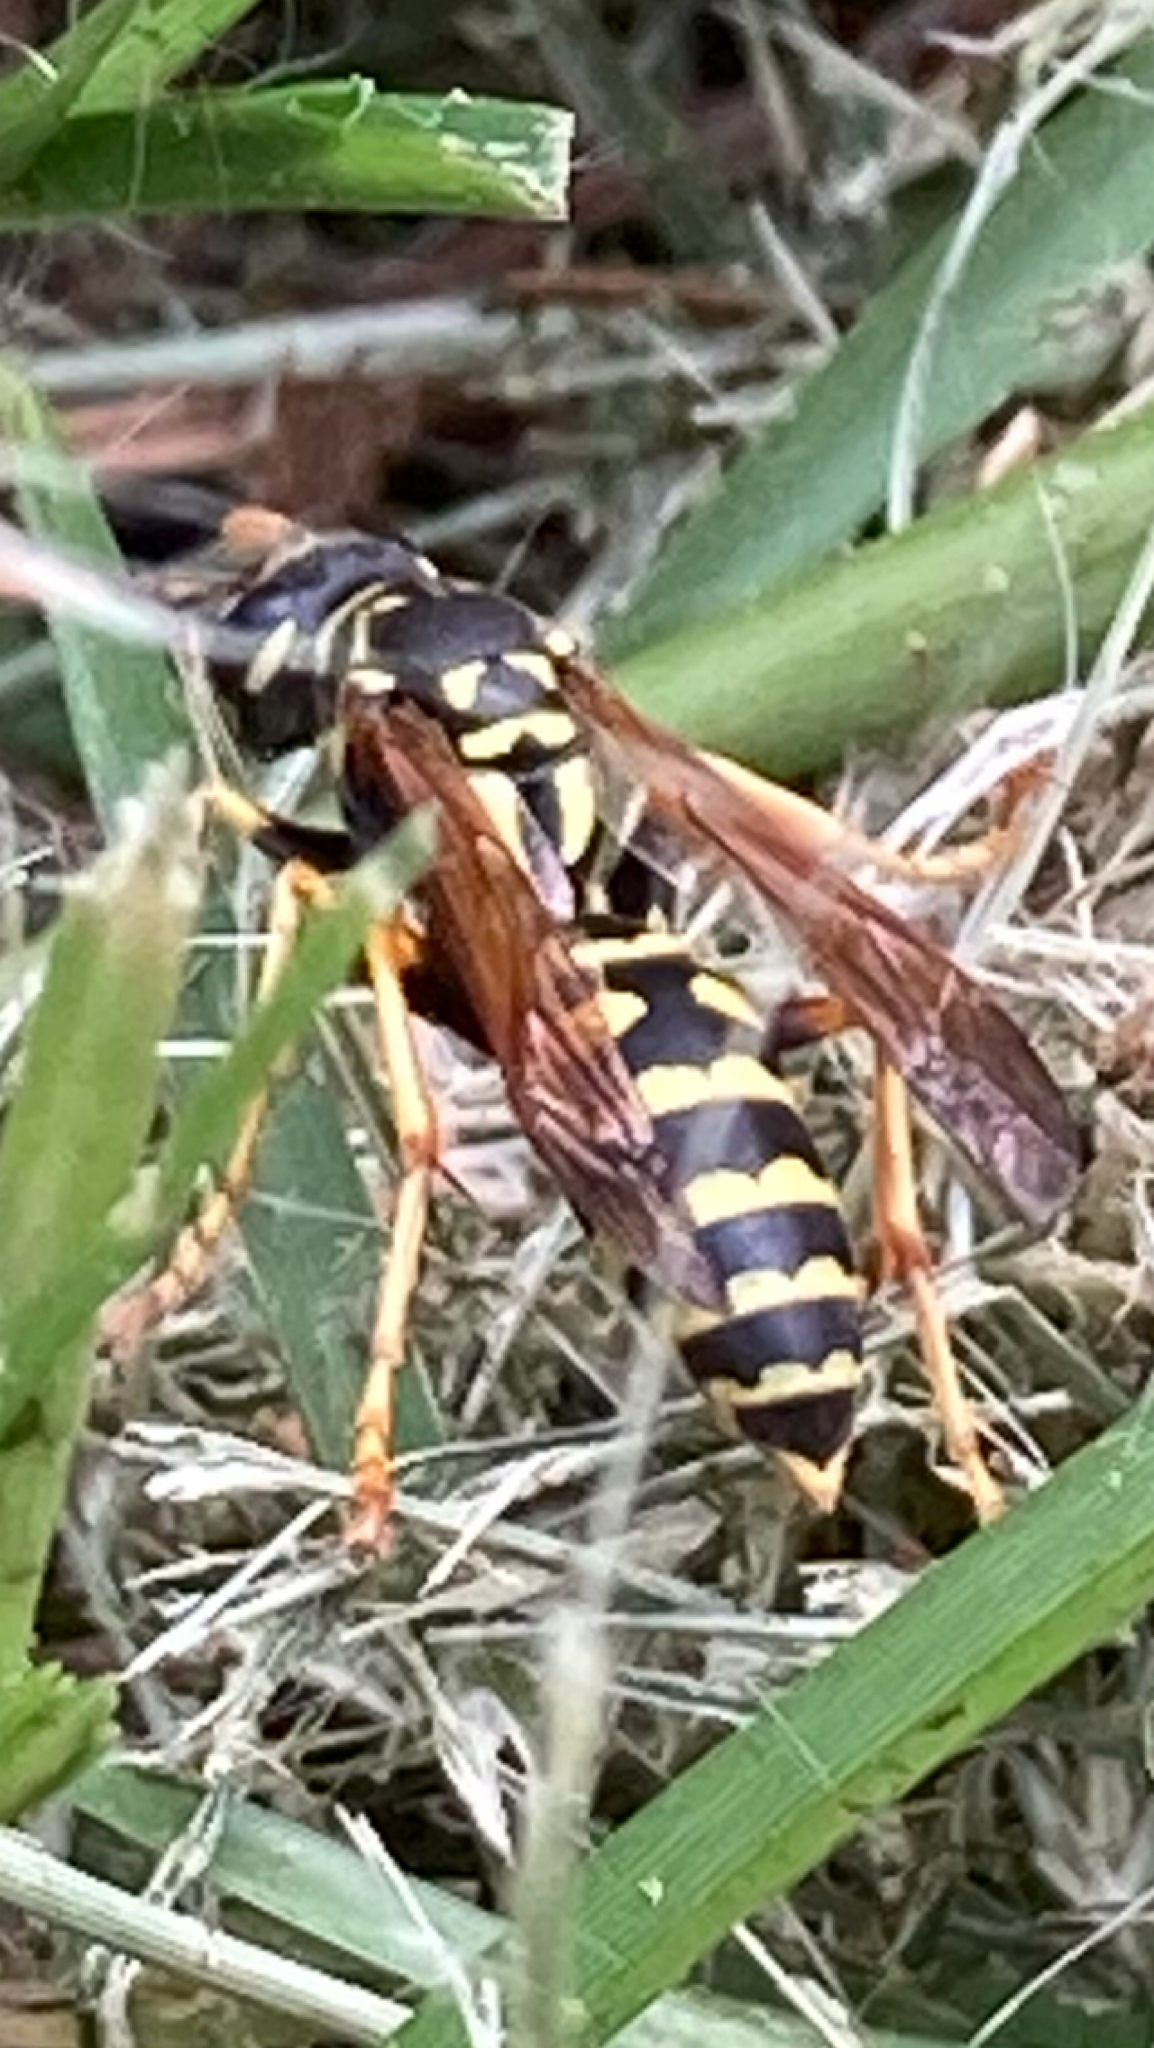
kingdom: Animalia
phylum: Arthropoda
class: Insecta
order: Hymenoptera
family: Eumenidae
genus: Polistes
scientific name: Polistes dominula
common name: Paper wasp
